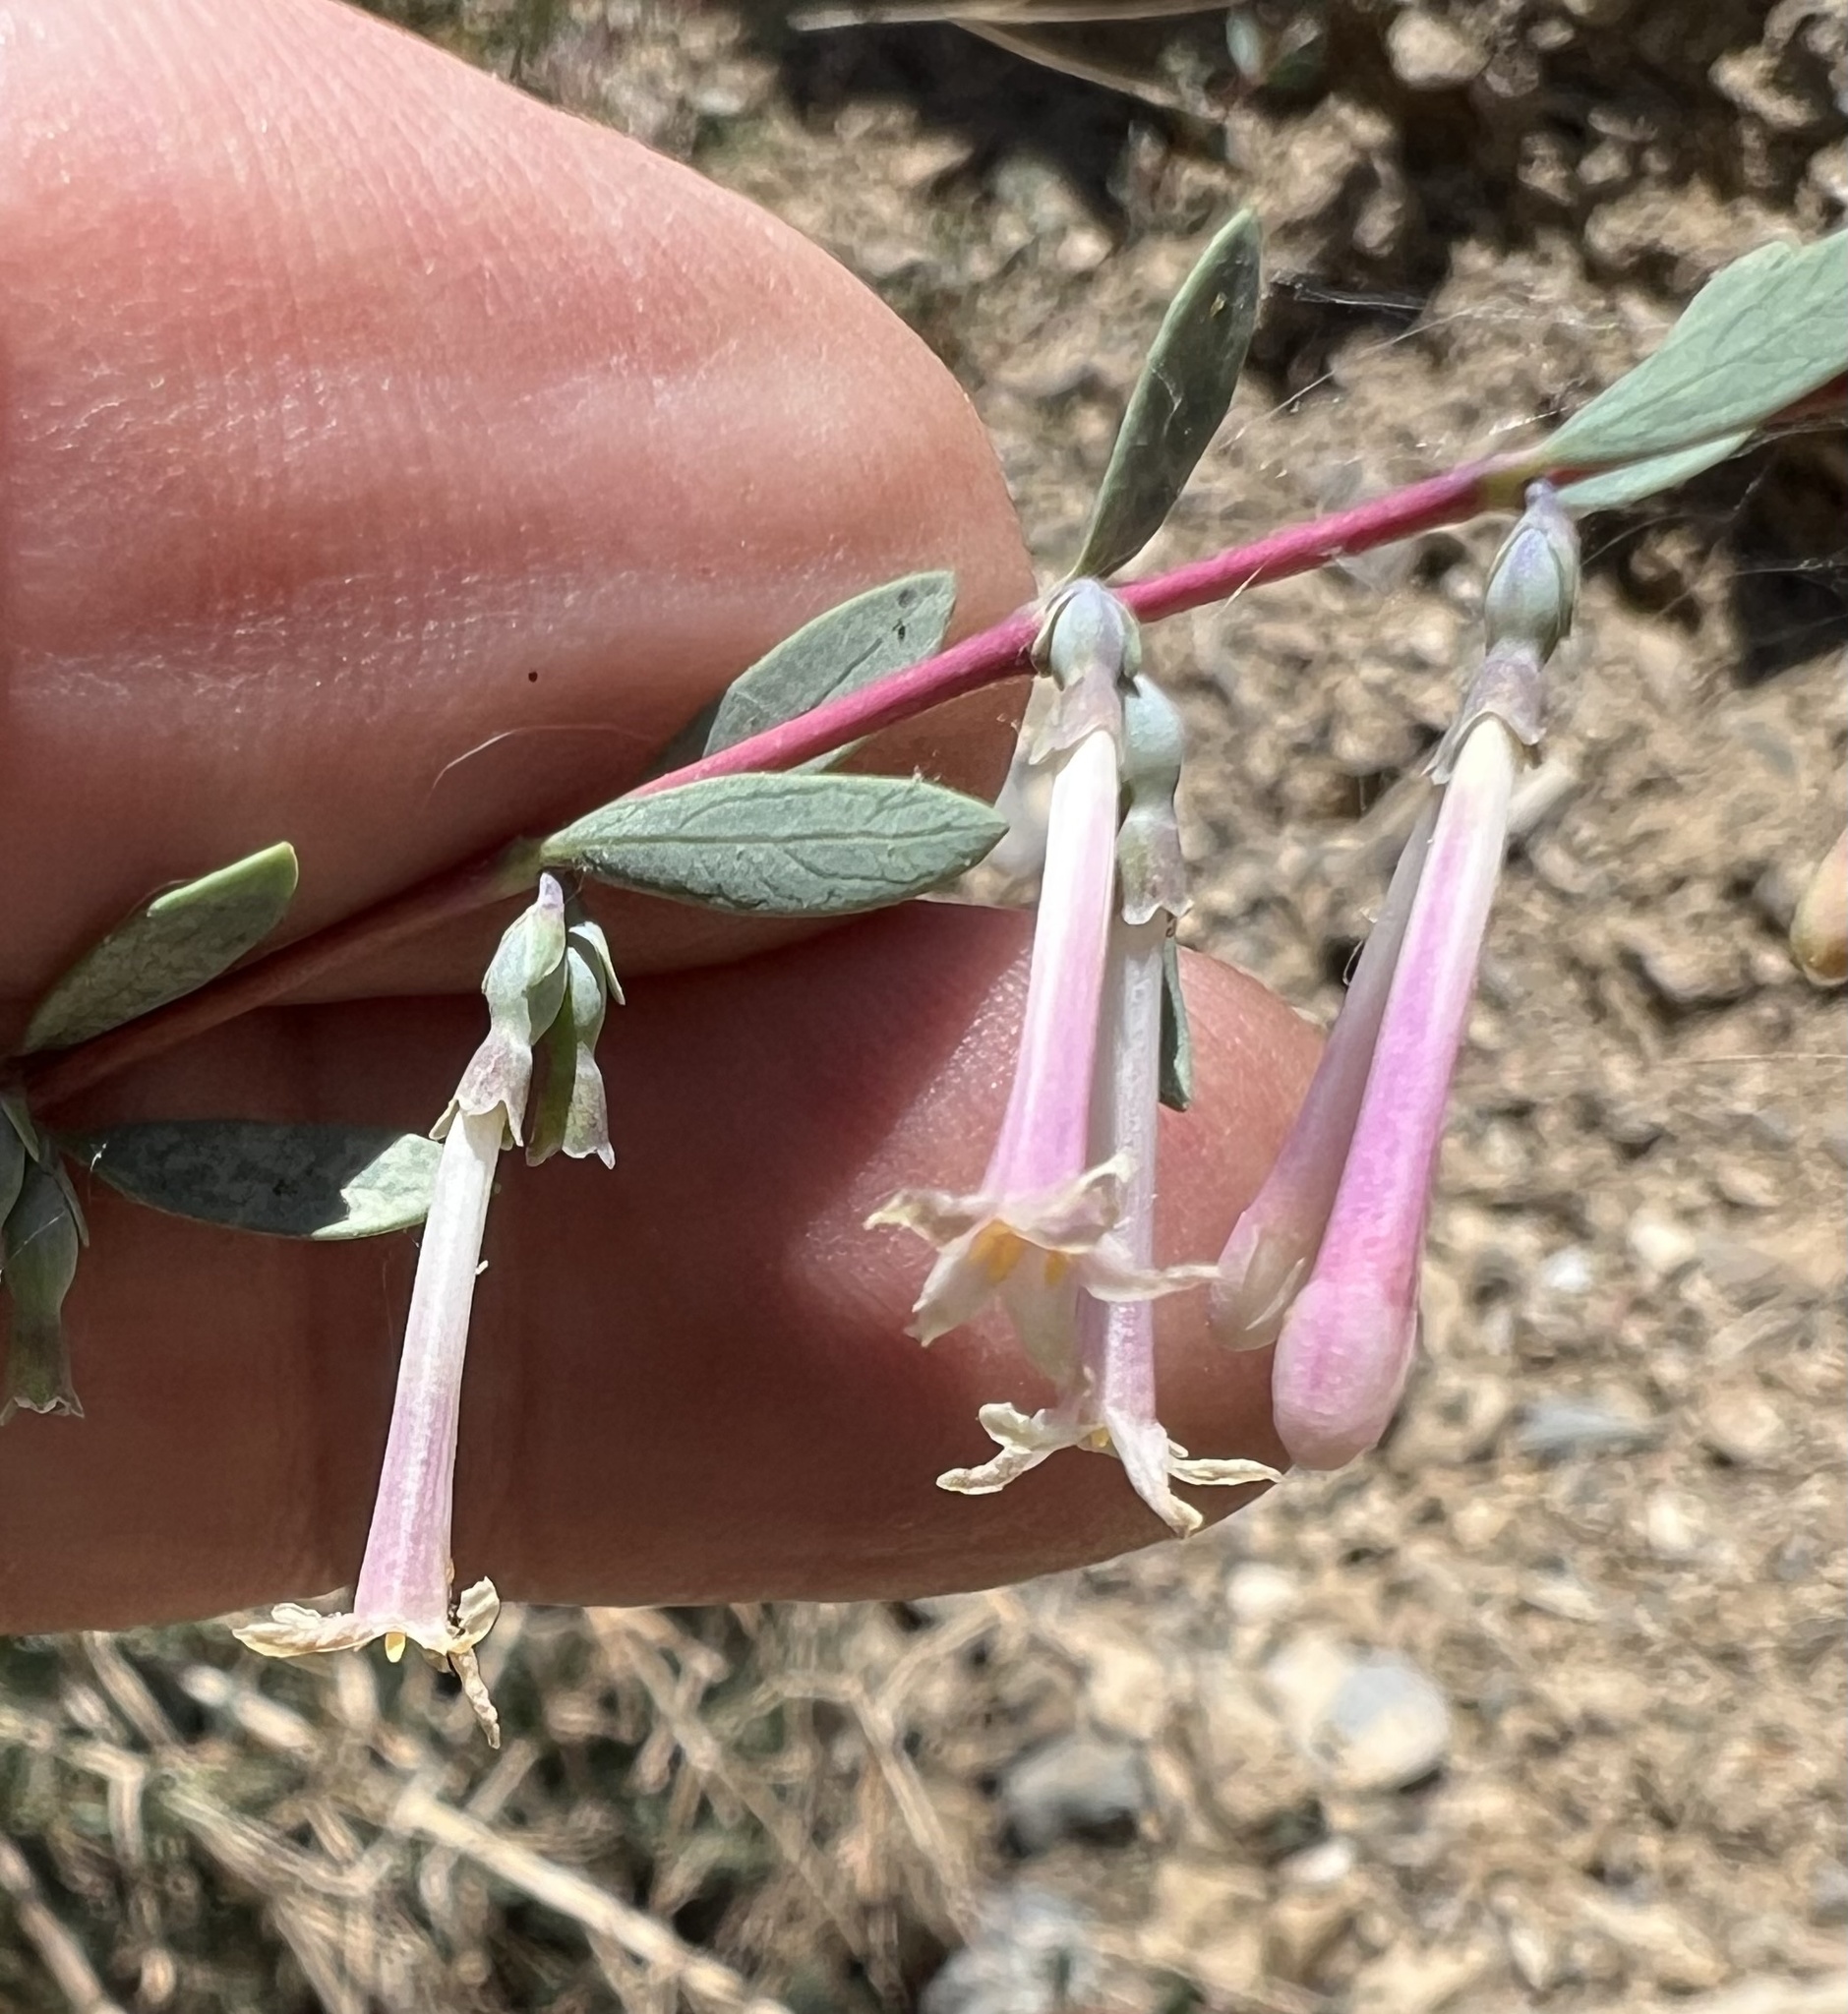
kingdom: Plantae
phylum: Tracheophyta
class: Magnoliopsida
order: Dipsacales
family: Caprifoliaceae
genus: Symphoricarpos
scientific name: Symphoricarpos longiflorus
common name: Fragrant snowberry
